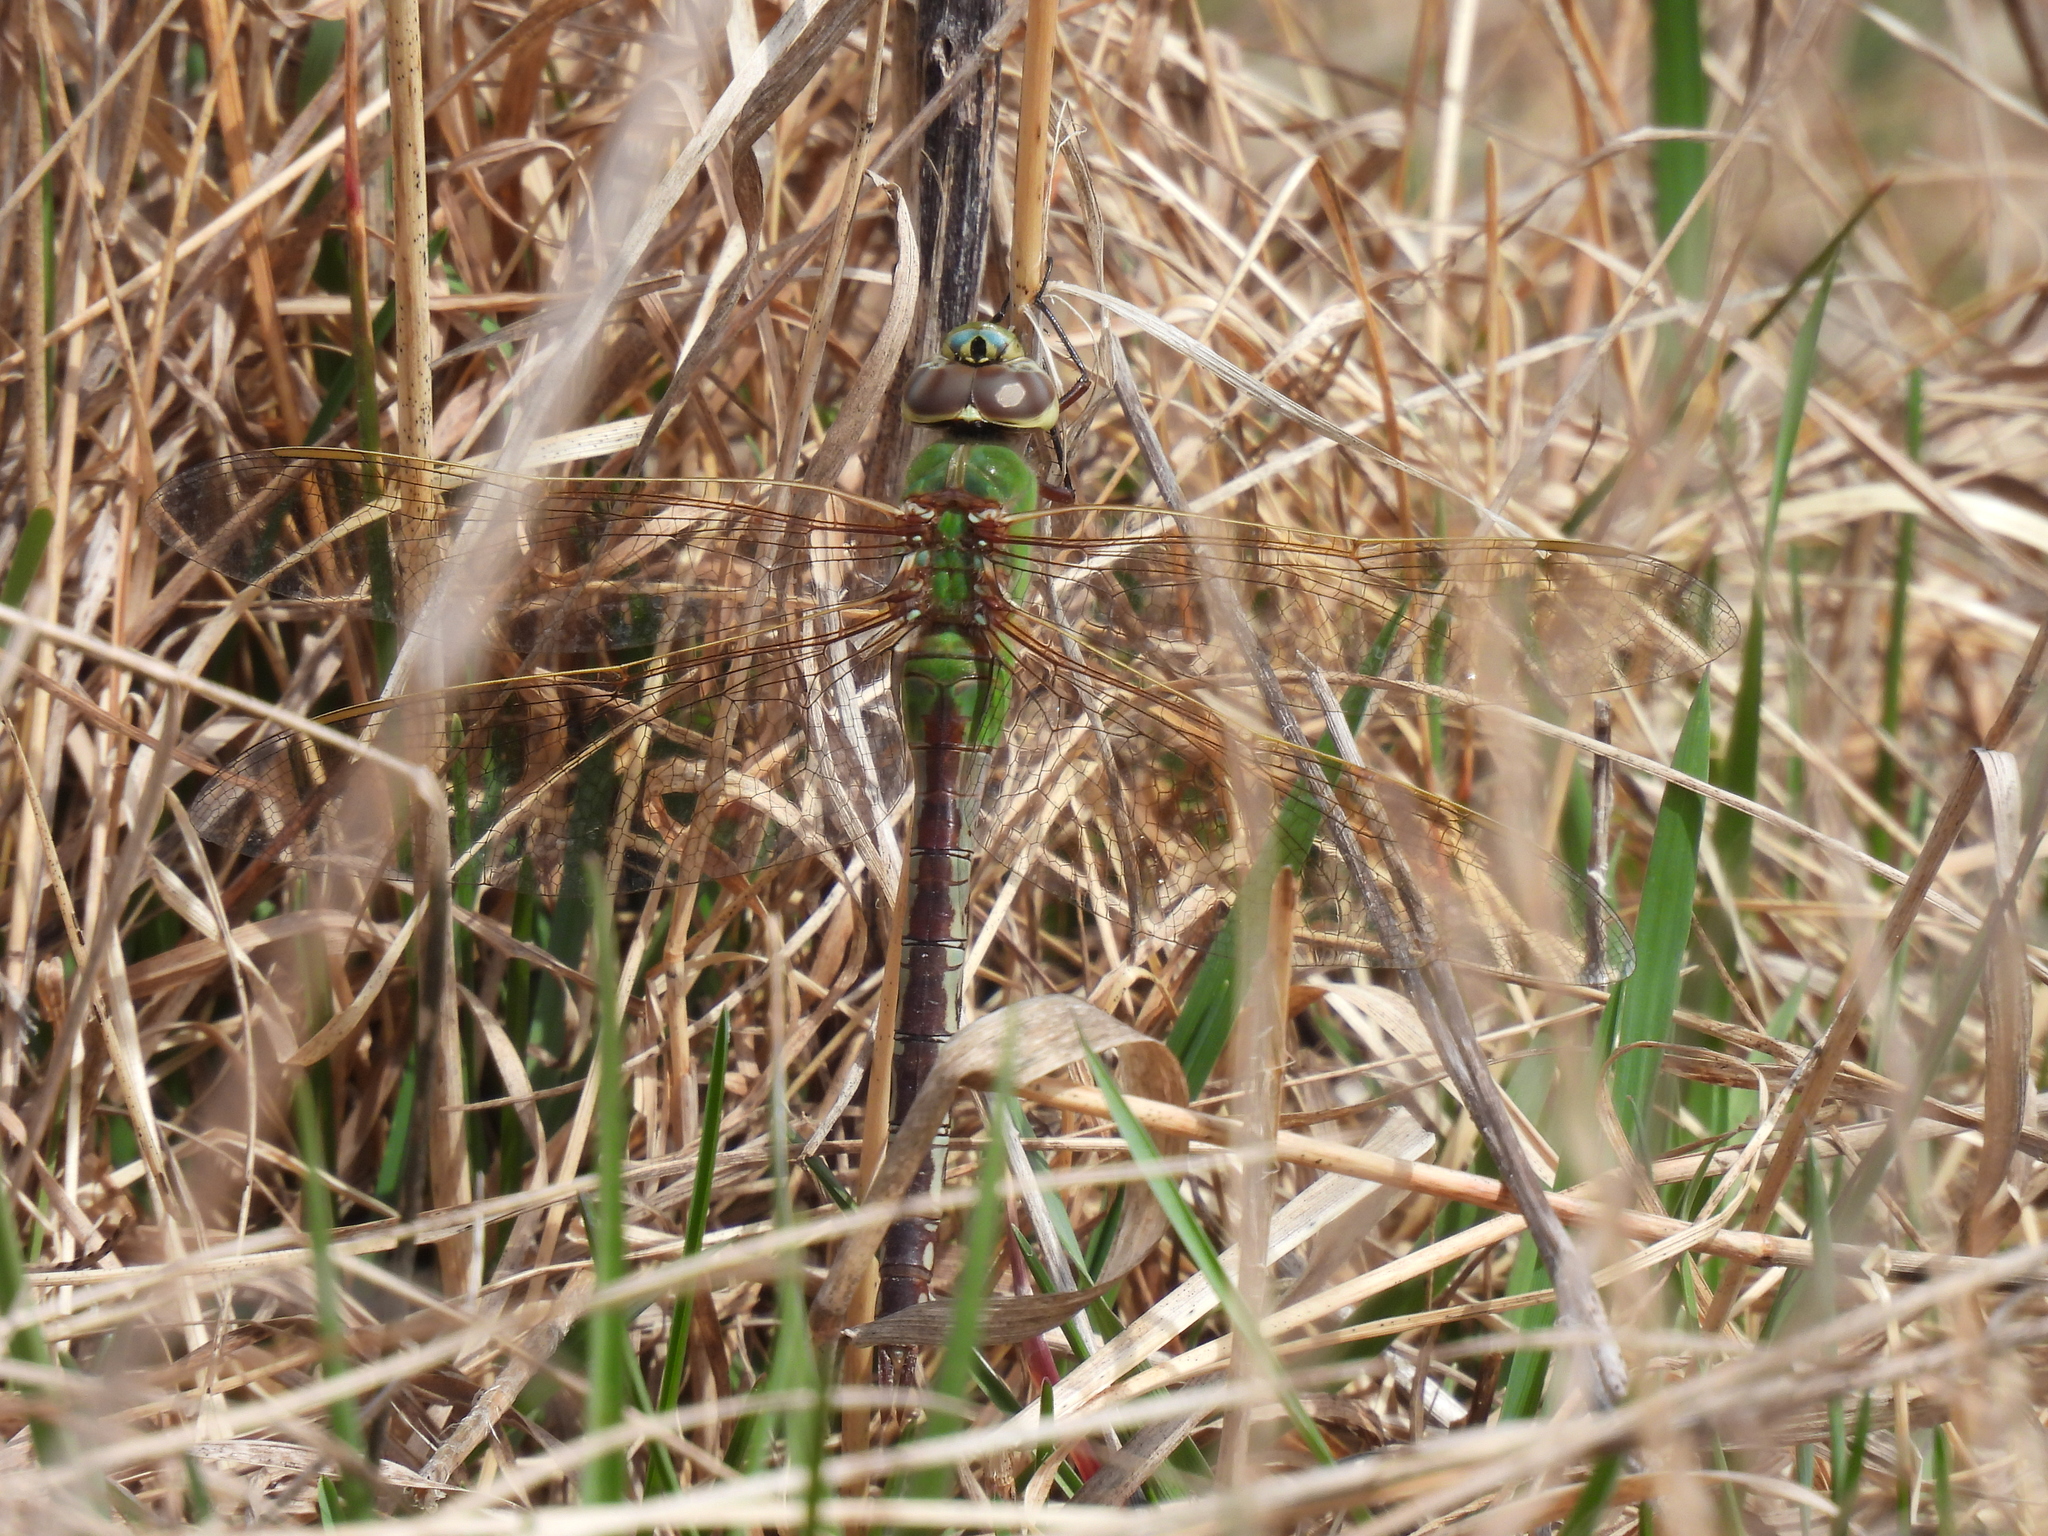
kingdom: Animalia
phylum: Arthropoda
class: Insecta
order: Odonata
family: Aeshnidae
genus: Anax
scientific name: Anax junius
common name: Common green darner
